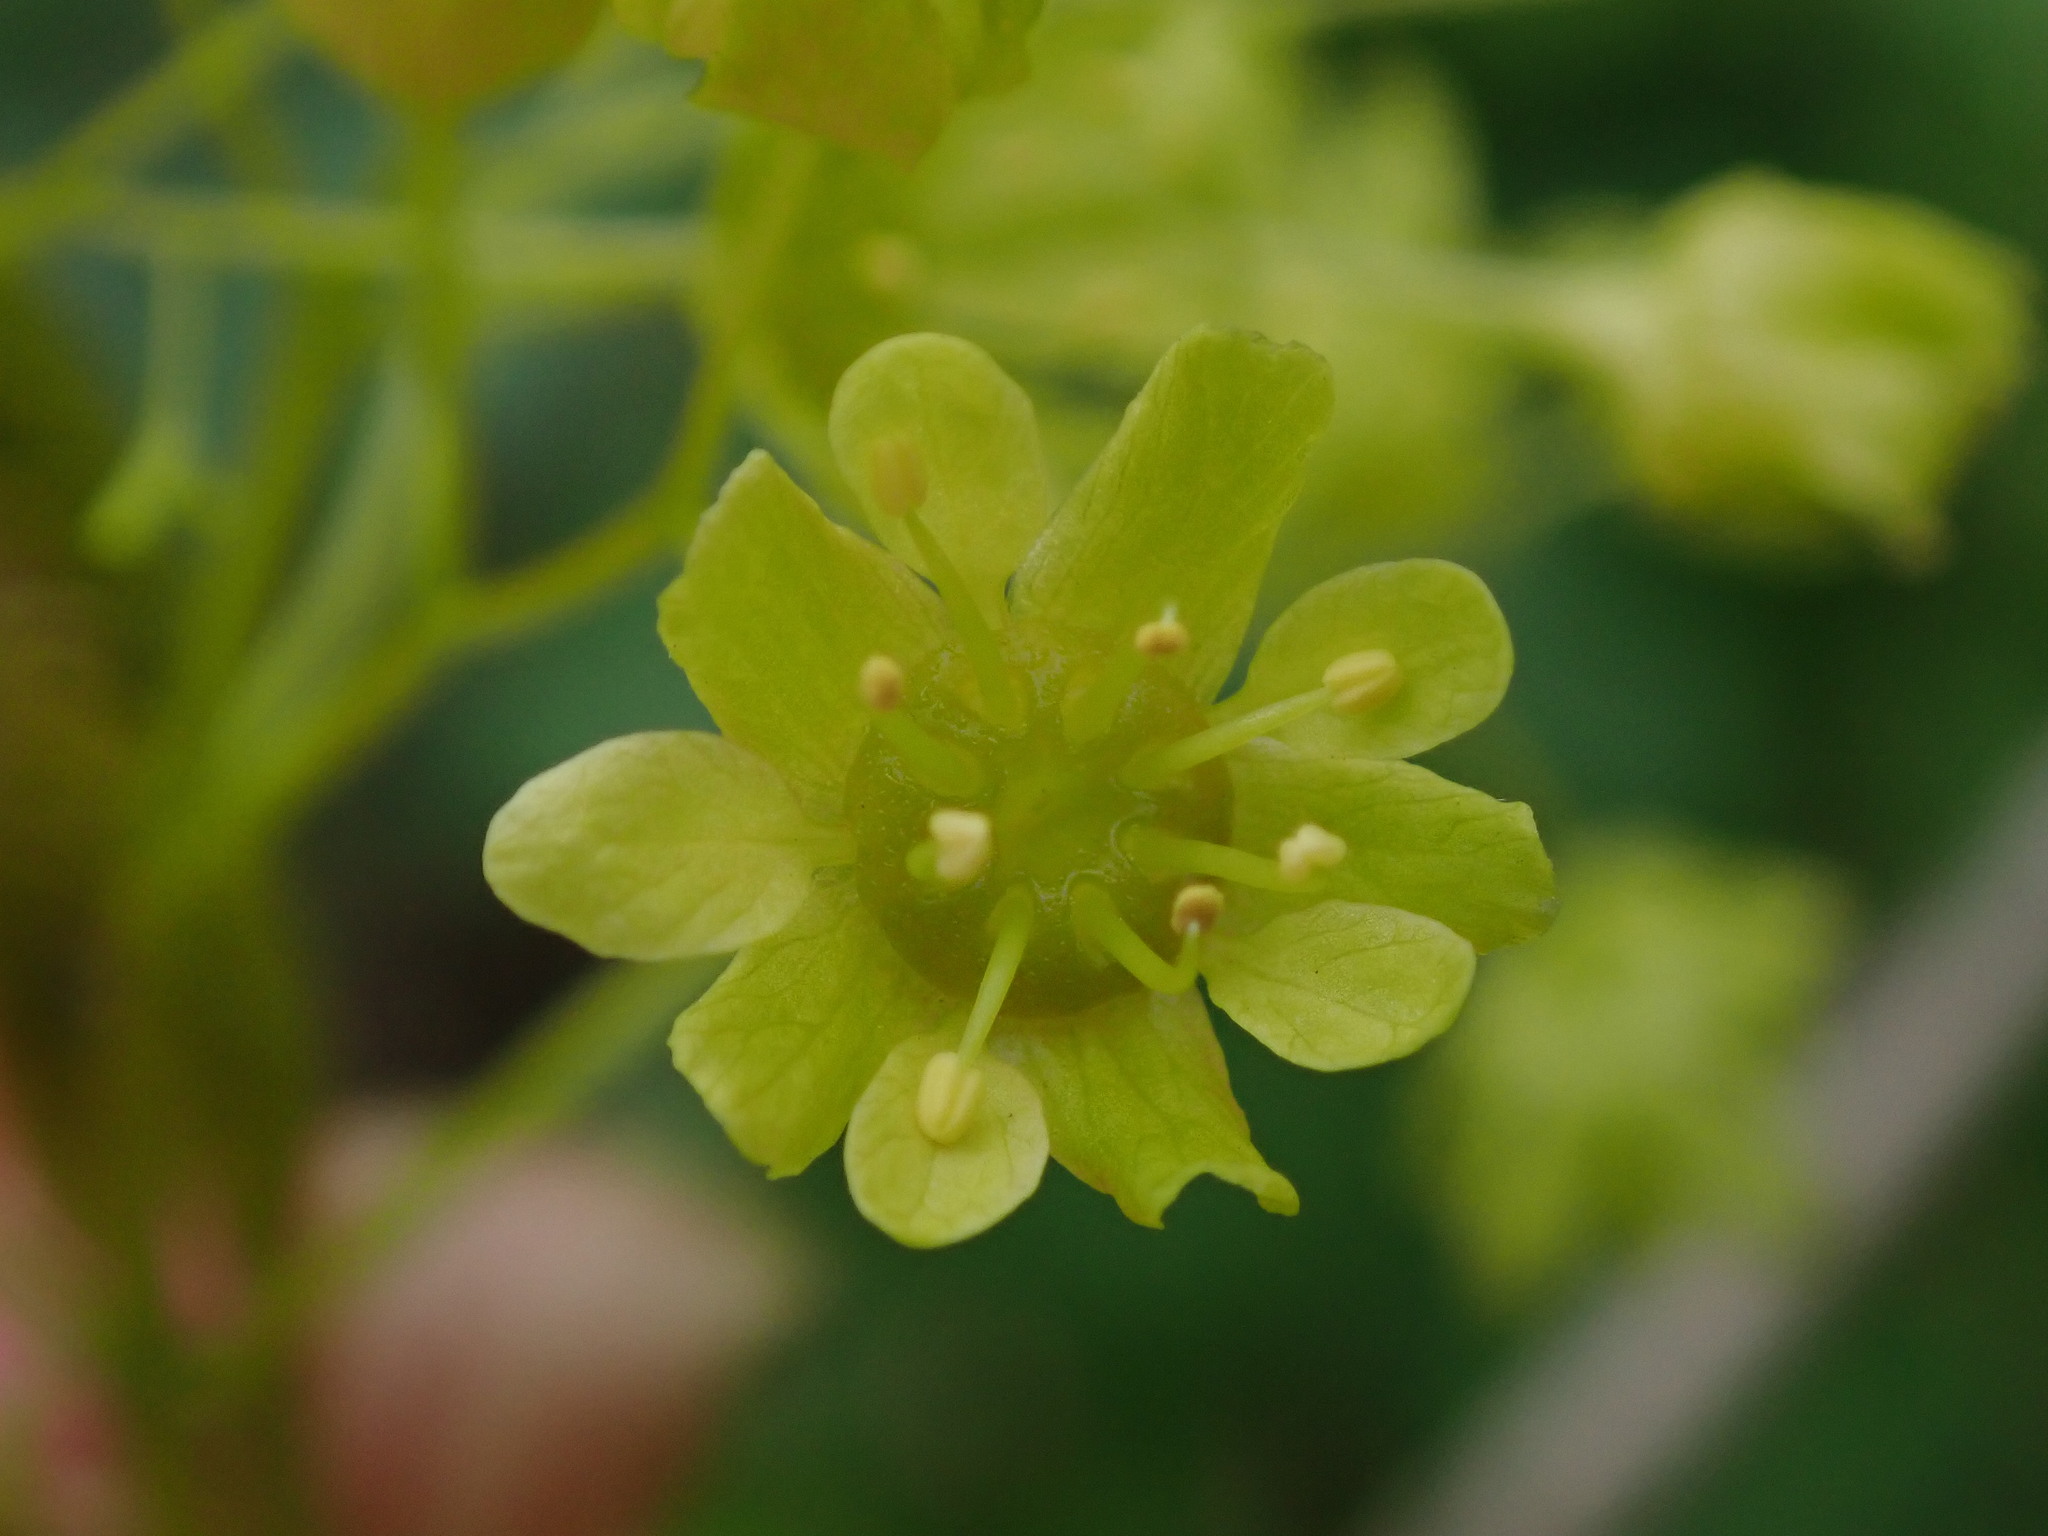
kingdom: Plantae
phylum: Tracheophyta
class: Magnoliopsida
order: Sapindales
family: Sapindaceae
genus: Acer
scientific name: Acer platanoides
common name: Norway maple
